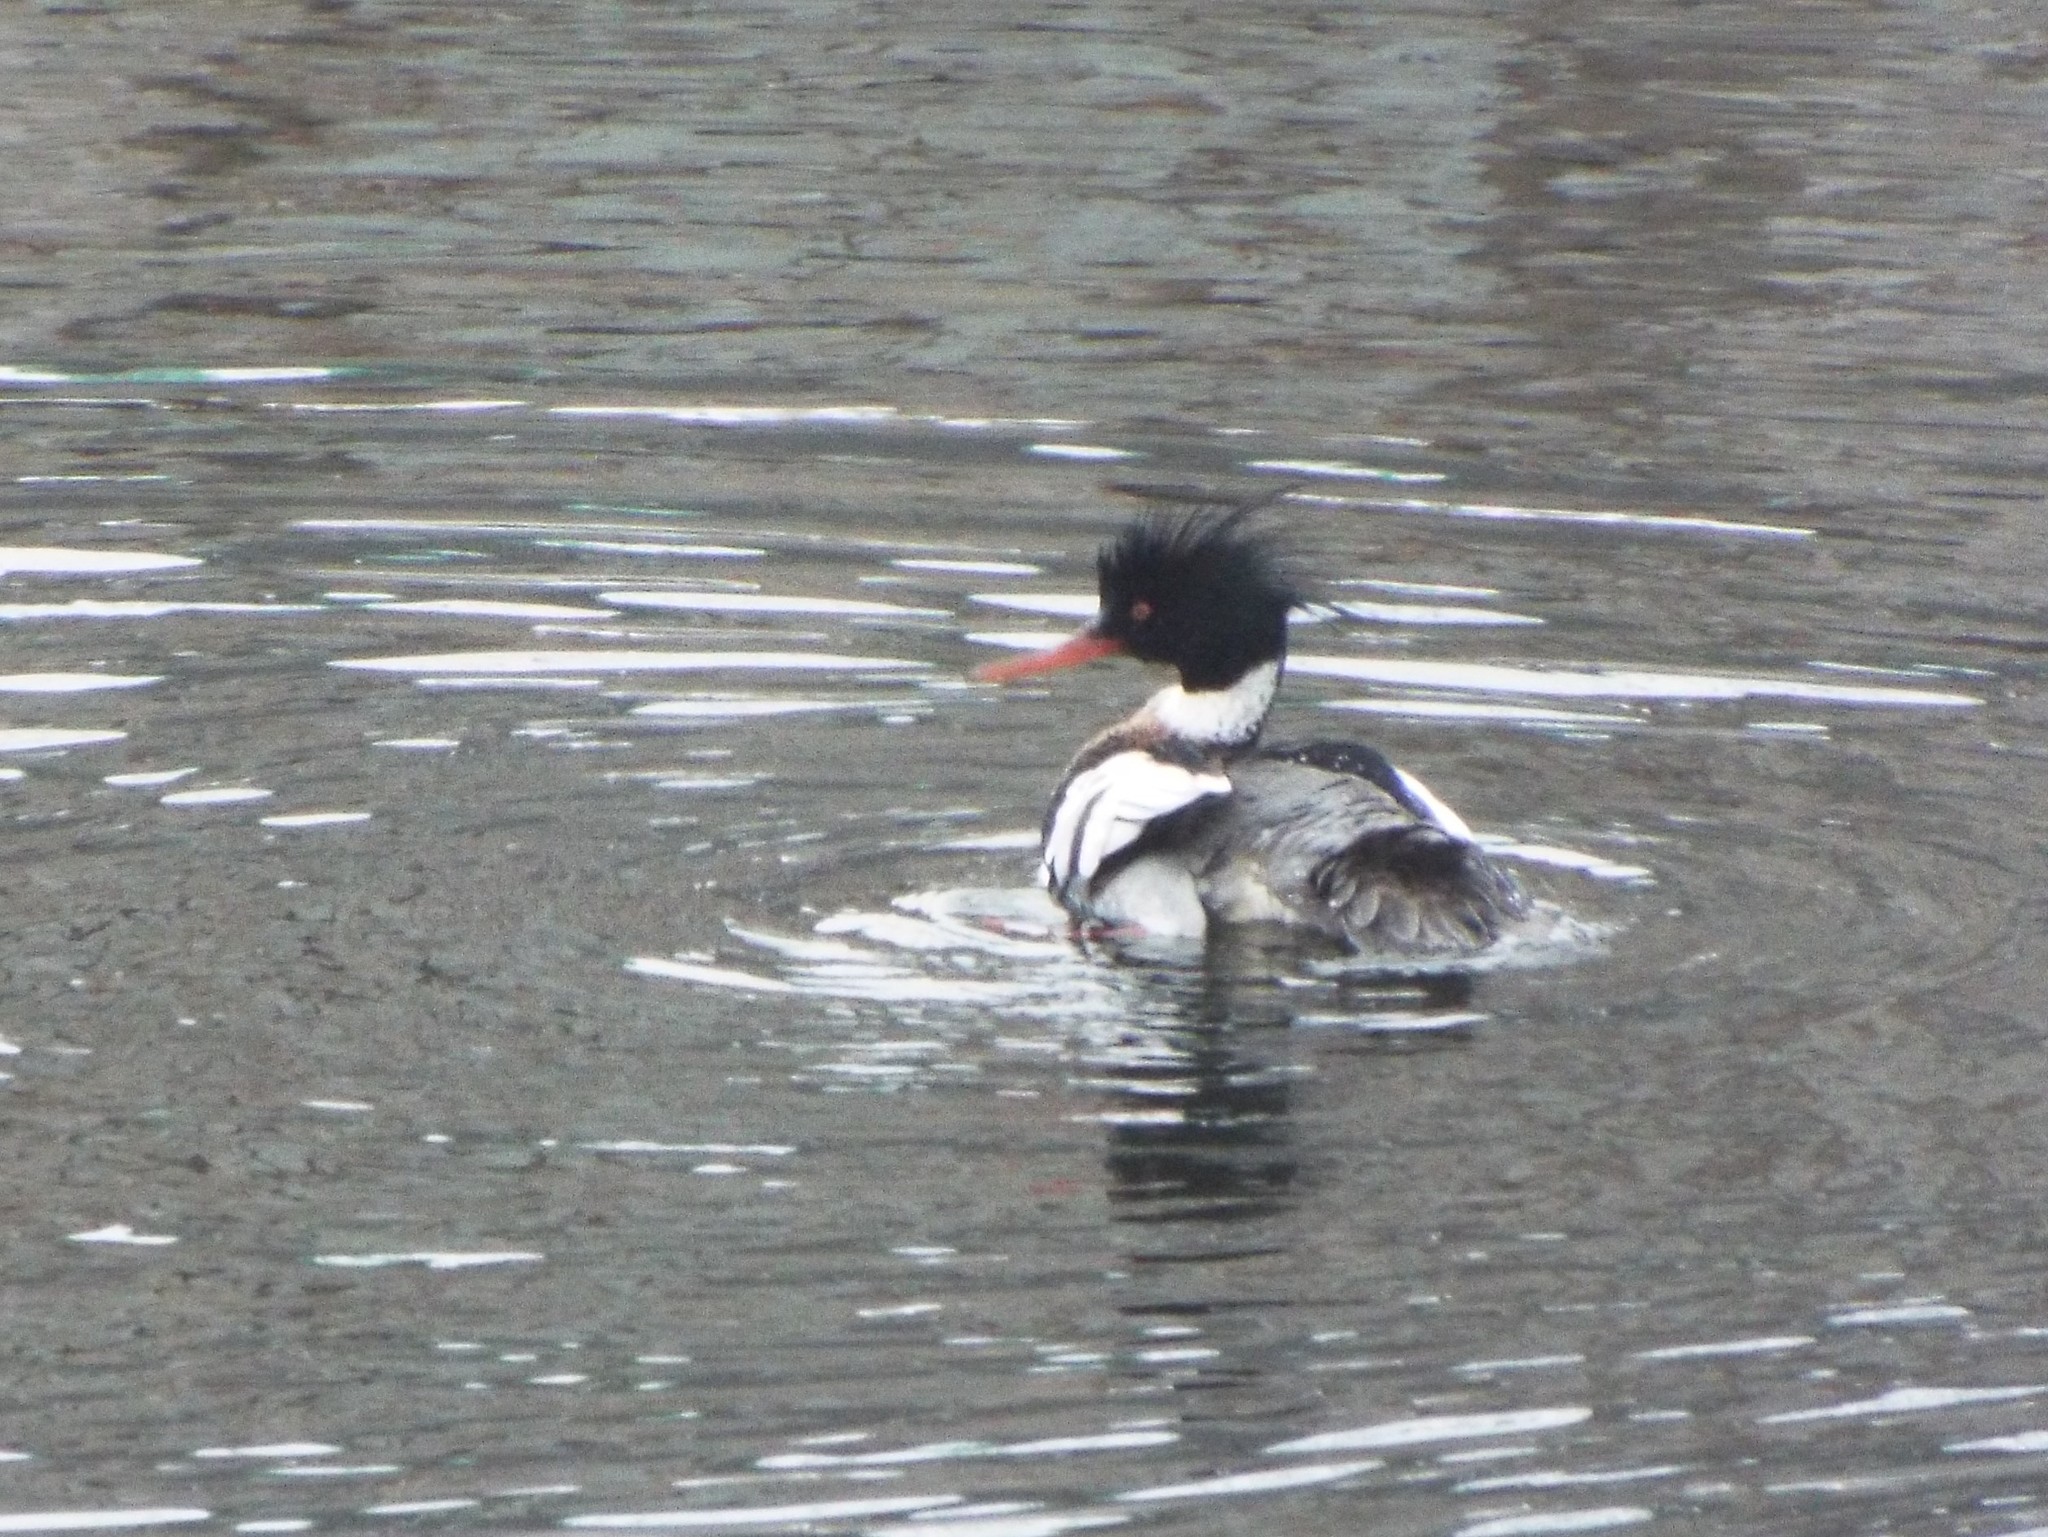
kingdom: Animalia
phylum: Chordata
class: Aves
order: Anseriformes
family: Anatidae
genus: Mergus
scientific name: Mergus serrator
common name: Red-breasted merganser
